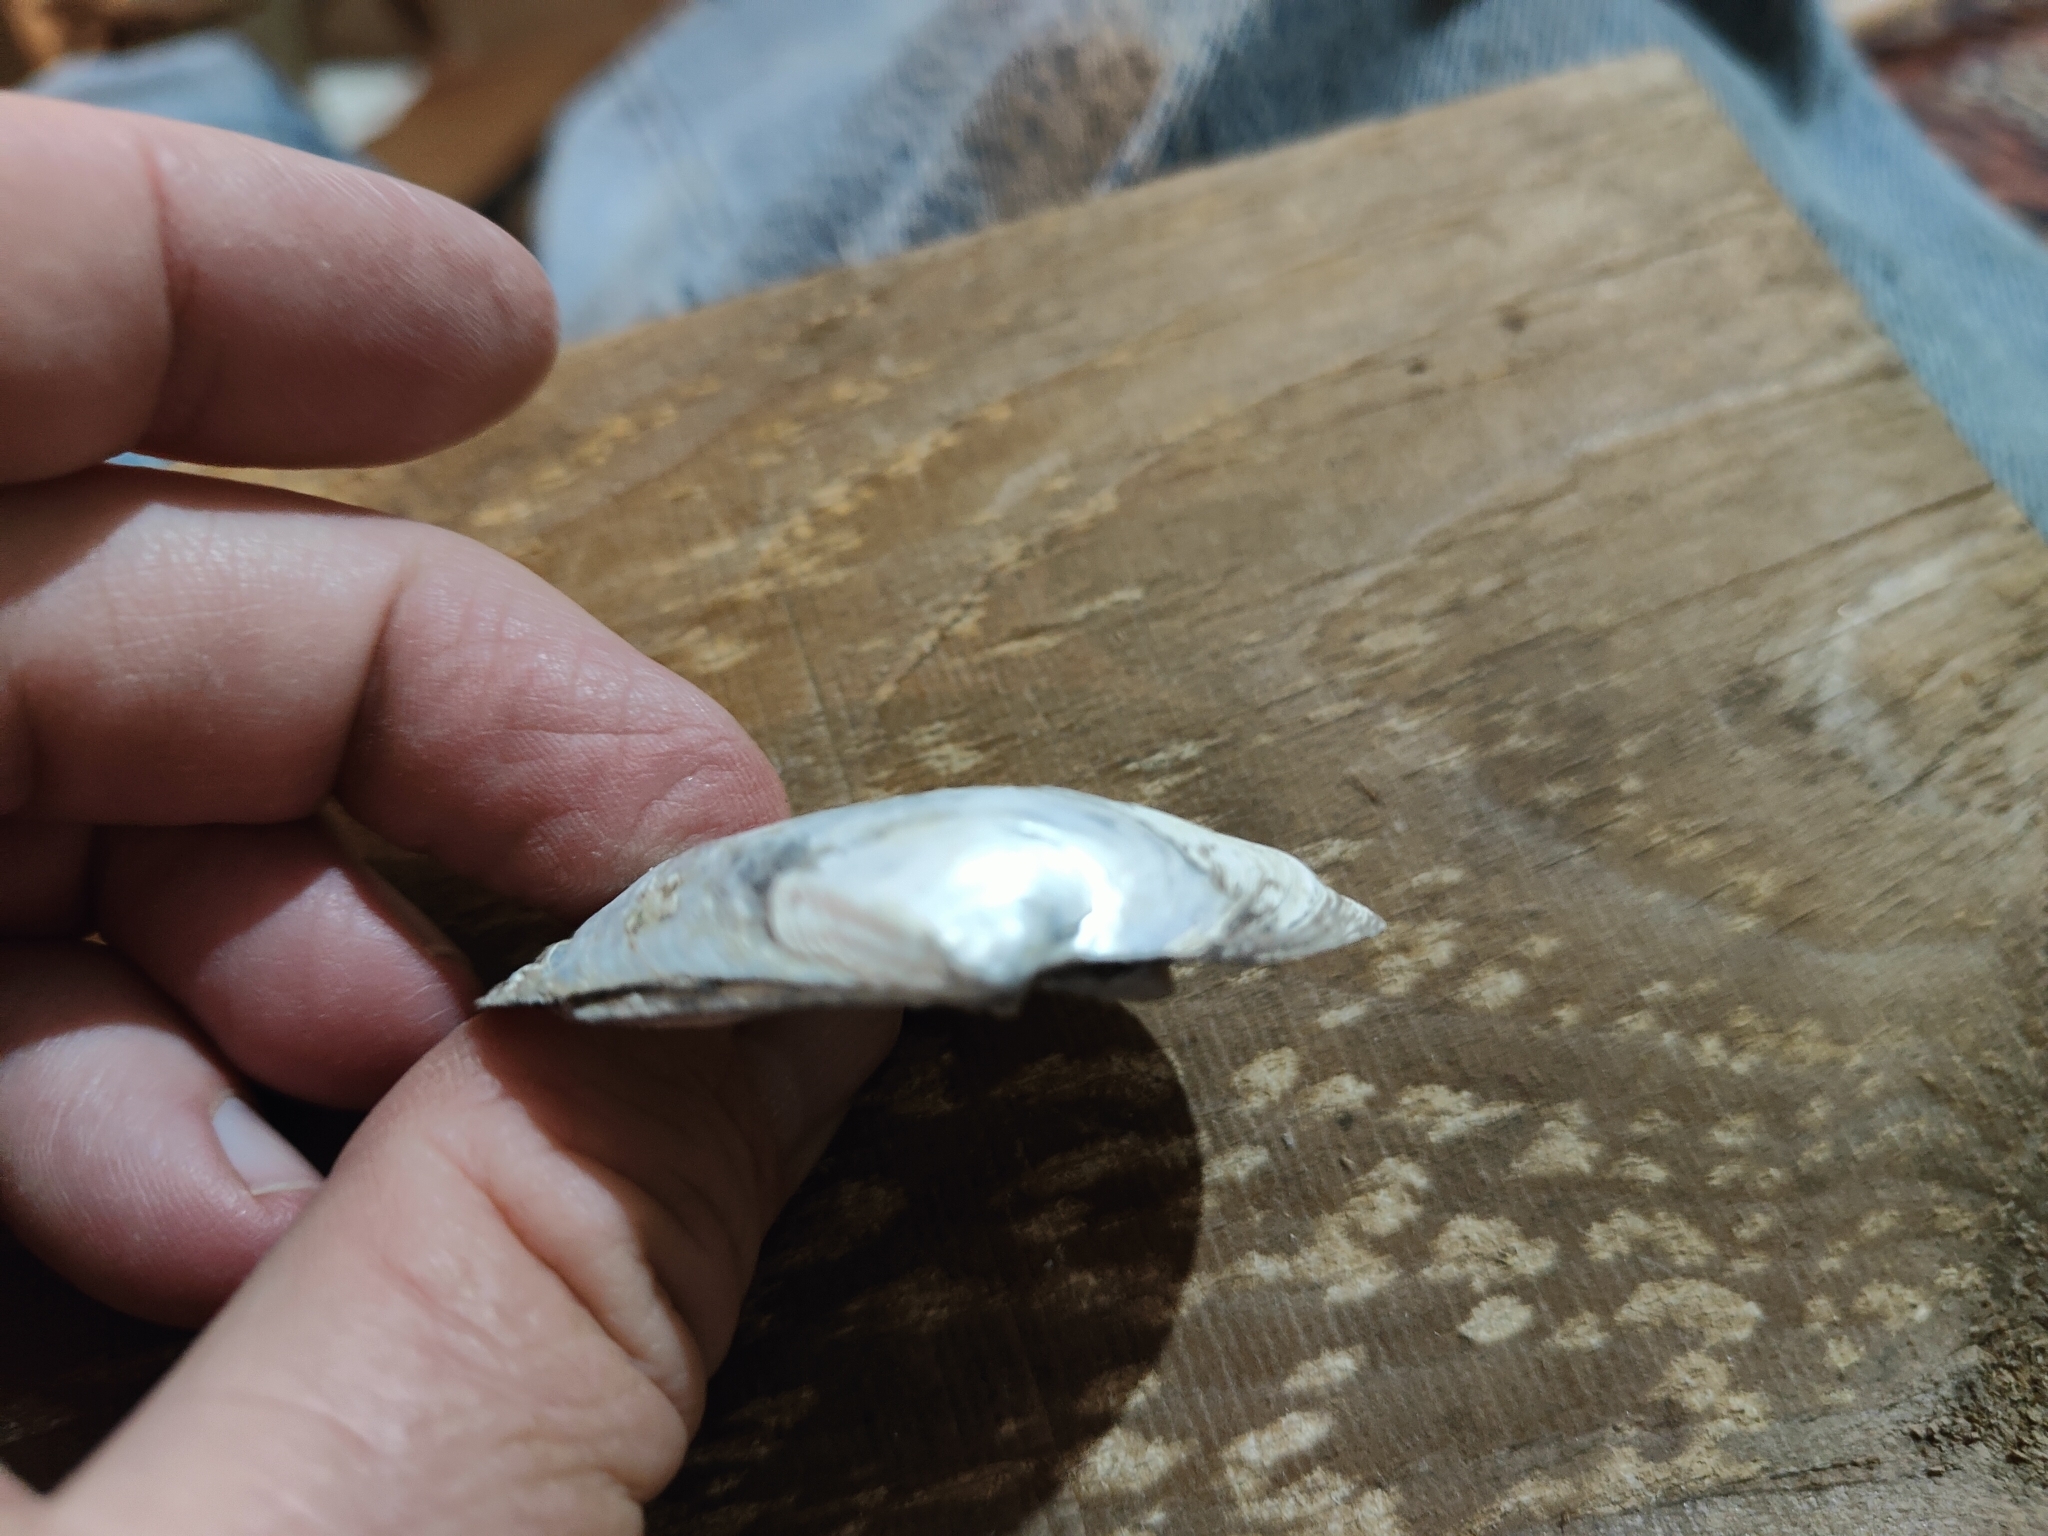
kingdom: Animalia
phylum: Mollusca
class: Bivalvia
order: Unionida
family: Unionidae
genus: Fusconaia
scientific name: Fusconaia flava
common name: Wabash pigtoe
